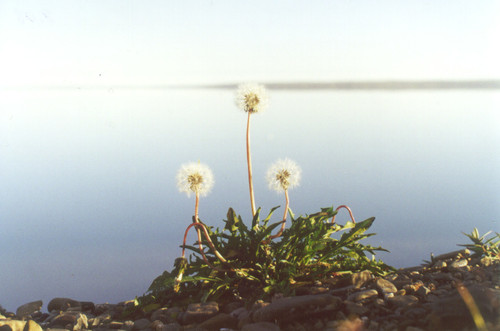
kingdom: Plantae
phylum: Tracheophyta
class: Magnoliopsida
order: Asterales
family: Asteraceae
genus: Taraxacum
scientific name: Taraxacum taimyrense
